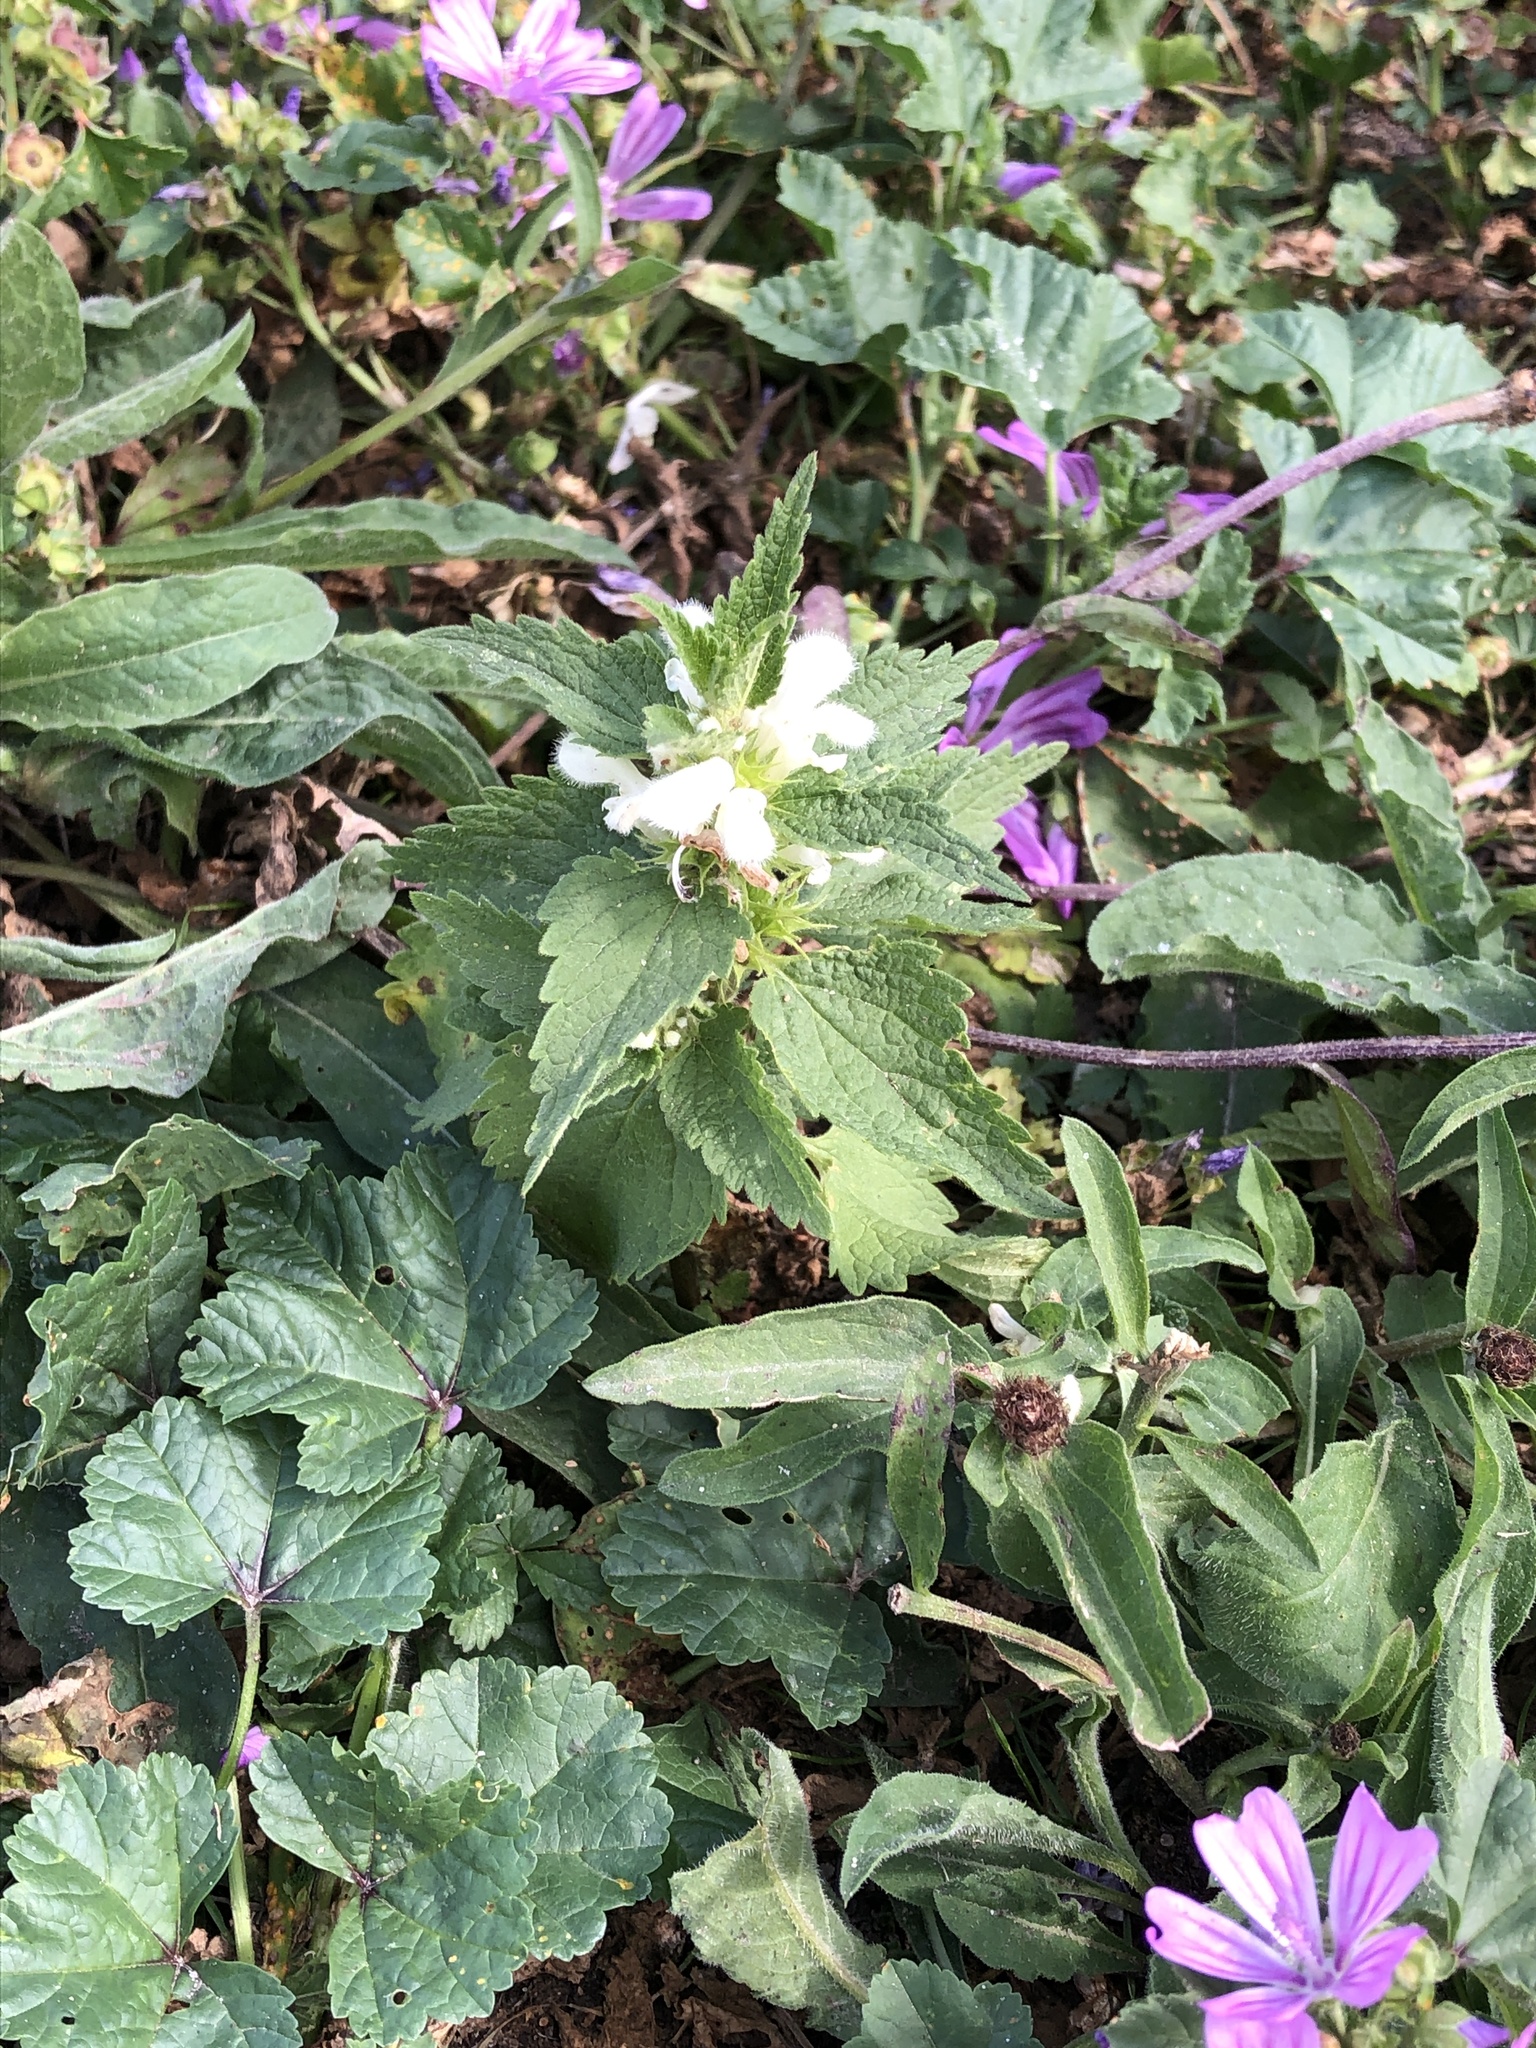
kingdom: Plantae
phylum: Tracheophyta
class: Magnoliopsida
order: Lamiales
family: Lamiaceae
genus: Lamium
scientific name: Lamium album
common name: White dead-nettle
